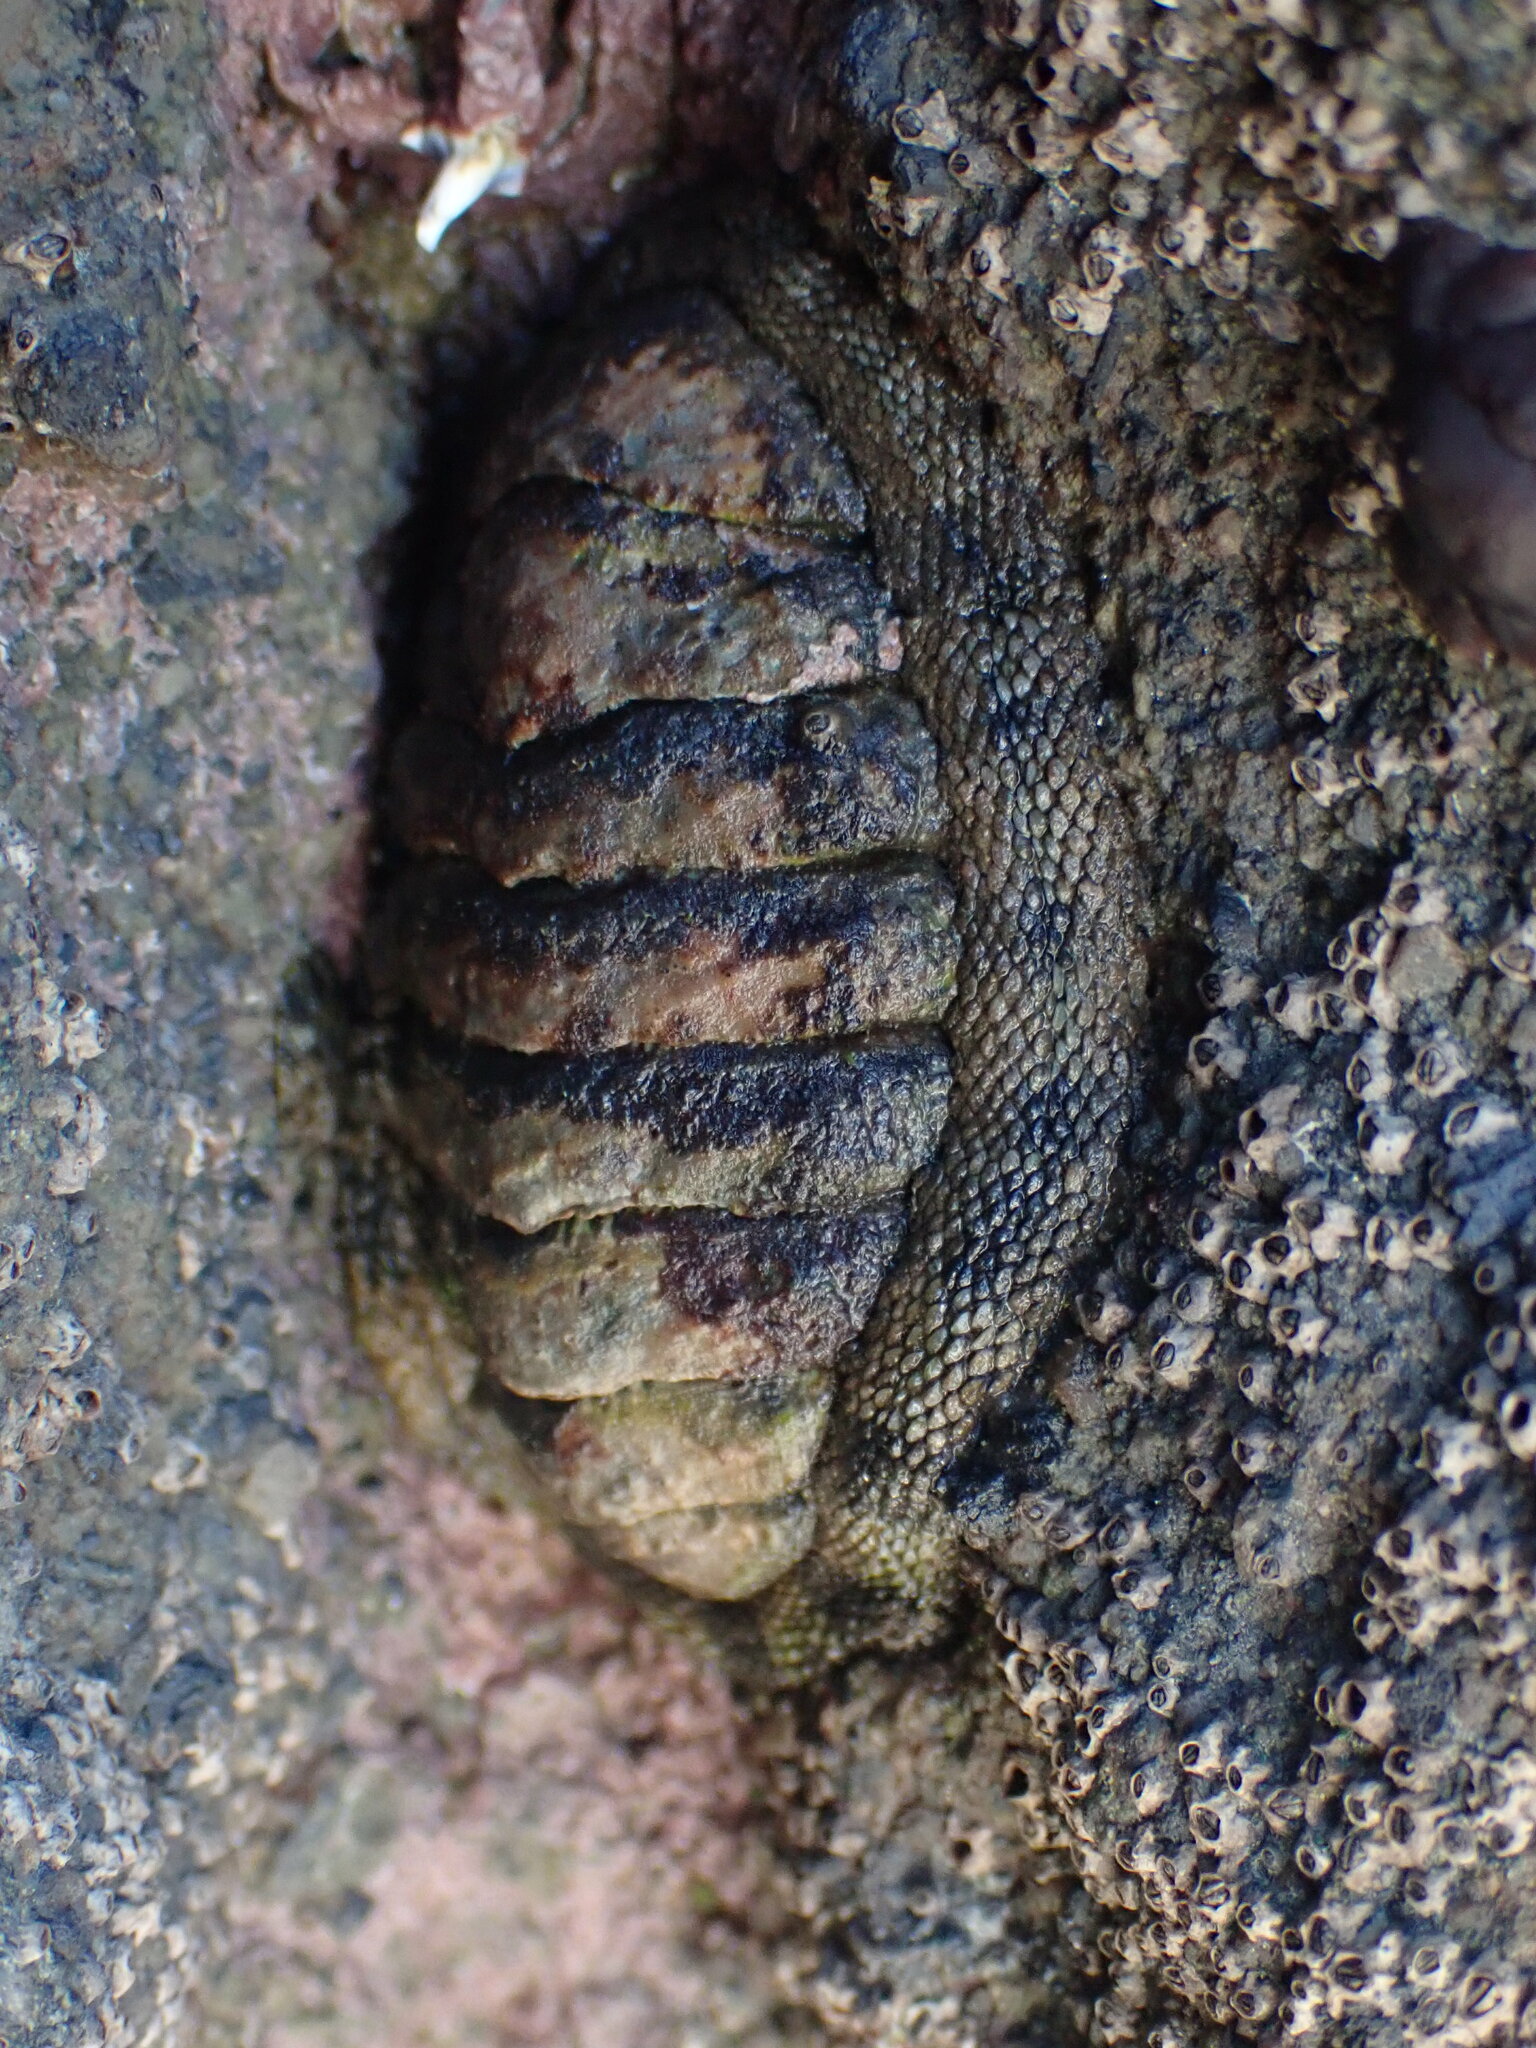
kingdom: Animalia
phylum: Mollusca
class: Polyplacophora
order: Chitonida
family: Chitonidae
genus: Sypharochiton
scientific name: Sypharochiton pelliserpentis
